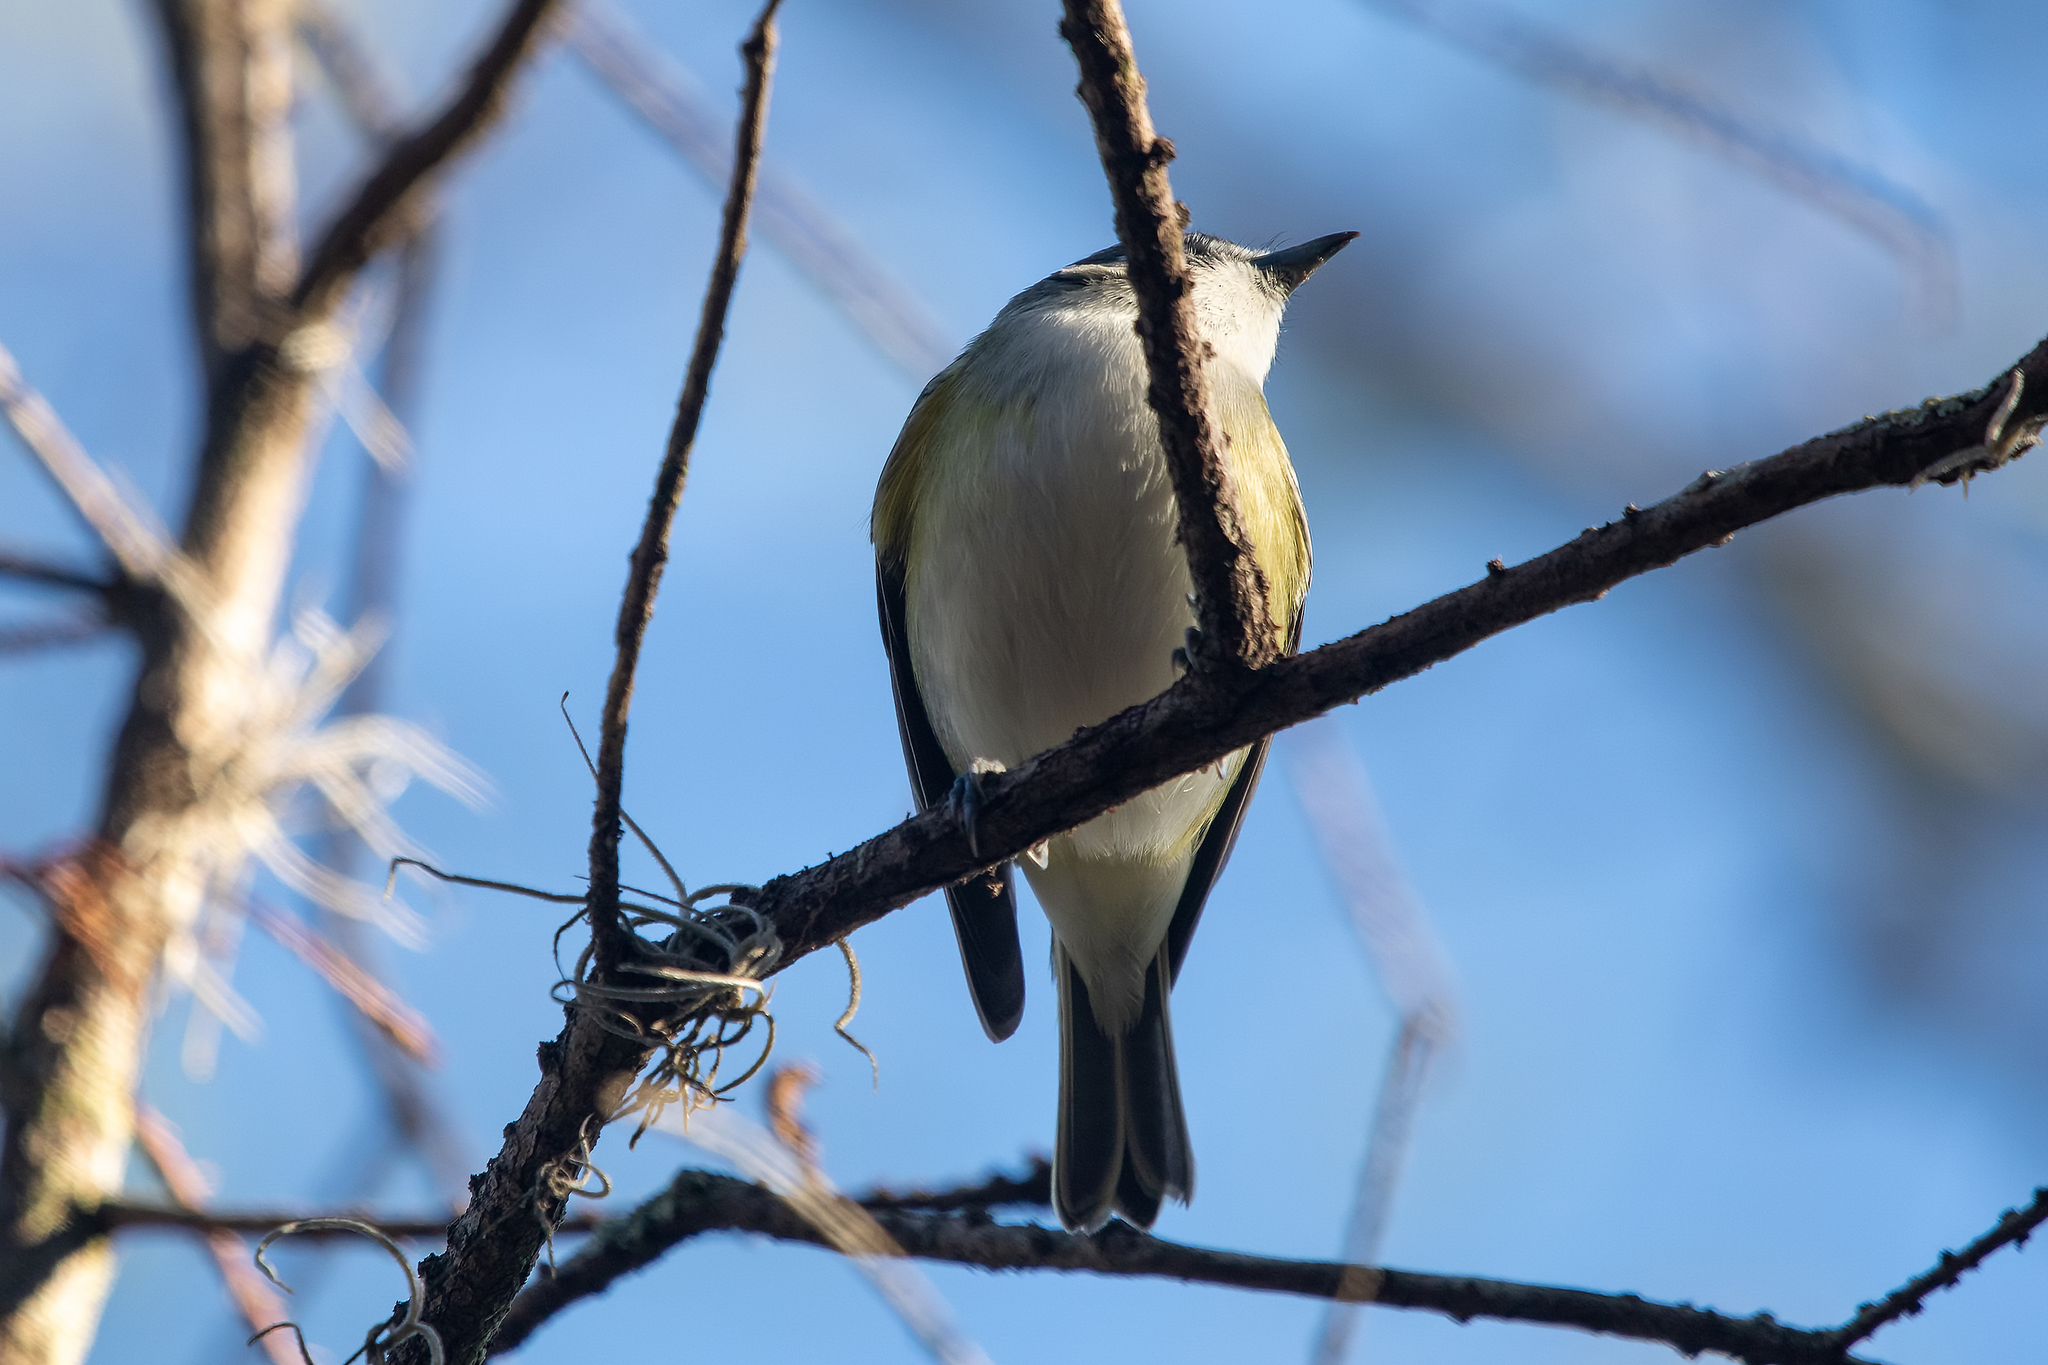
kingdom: Animalia
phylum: Chordata
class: Aves
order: Passeriformes
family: Vireonidae
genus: Vireo
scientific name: Vireo solitarius
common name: Blue-headed vireo
